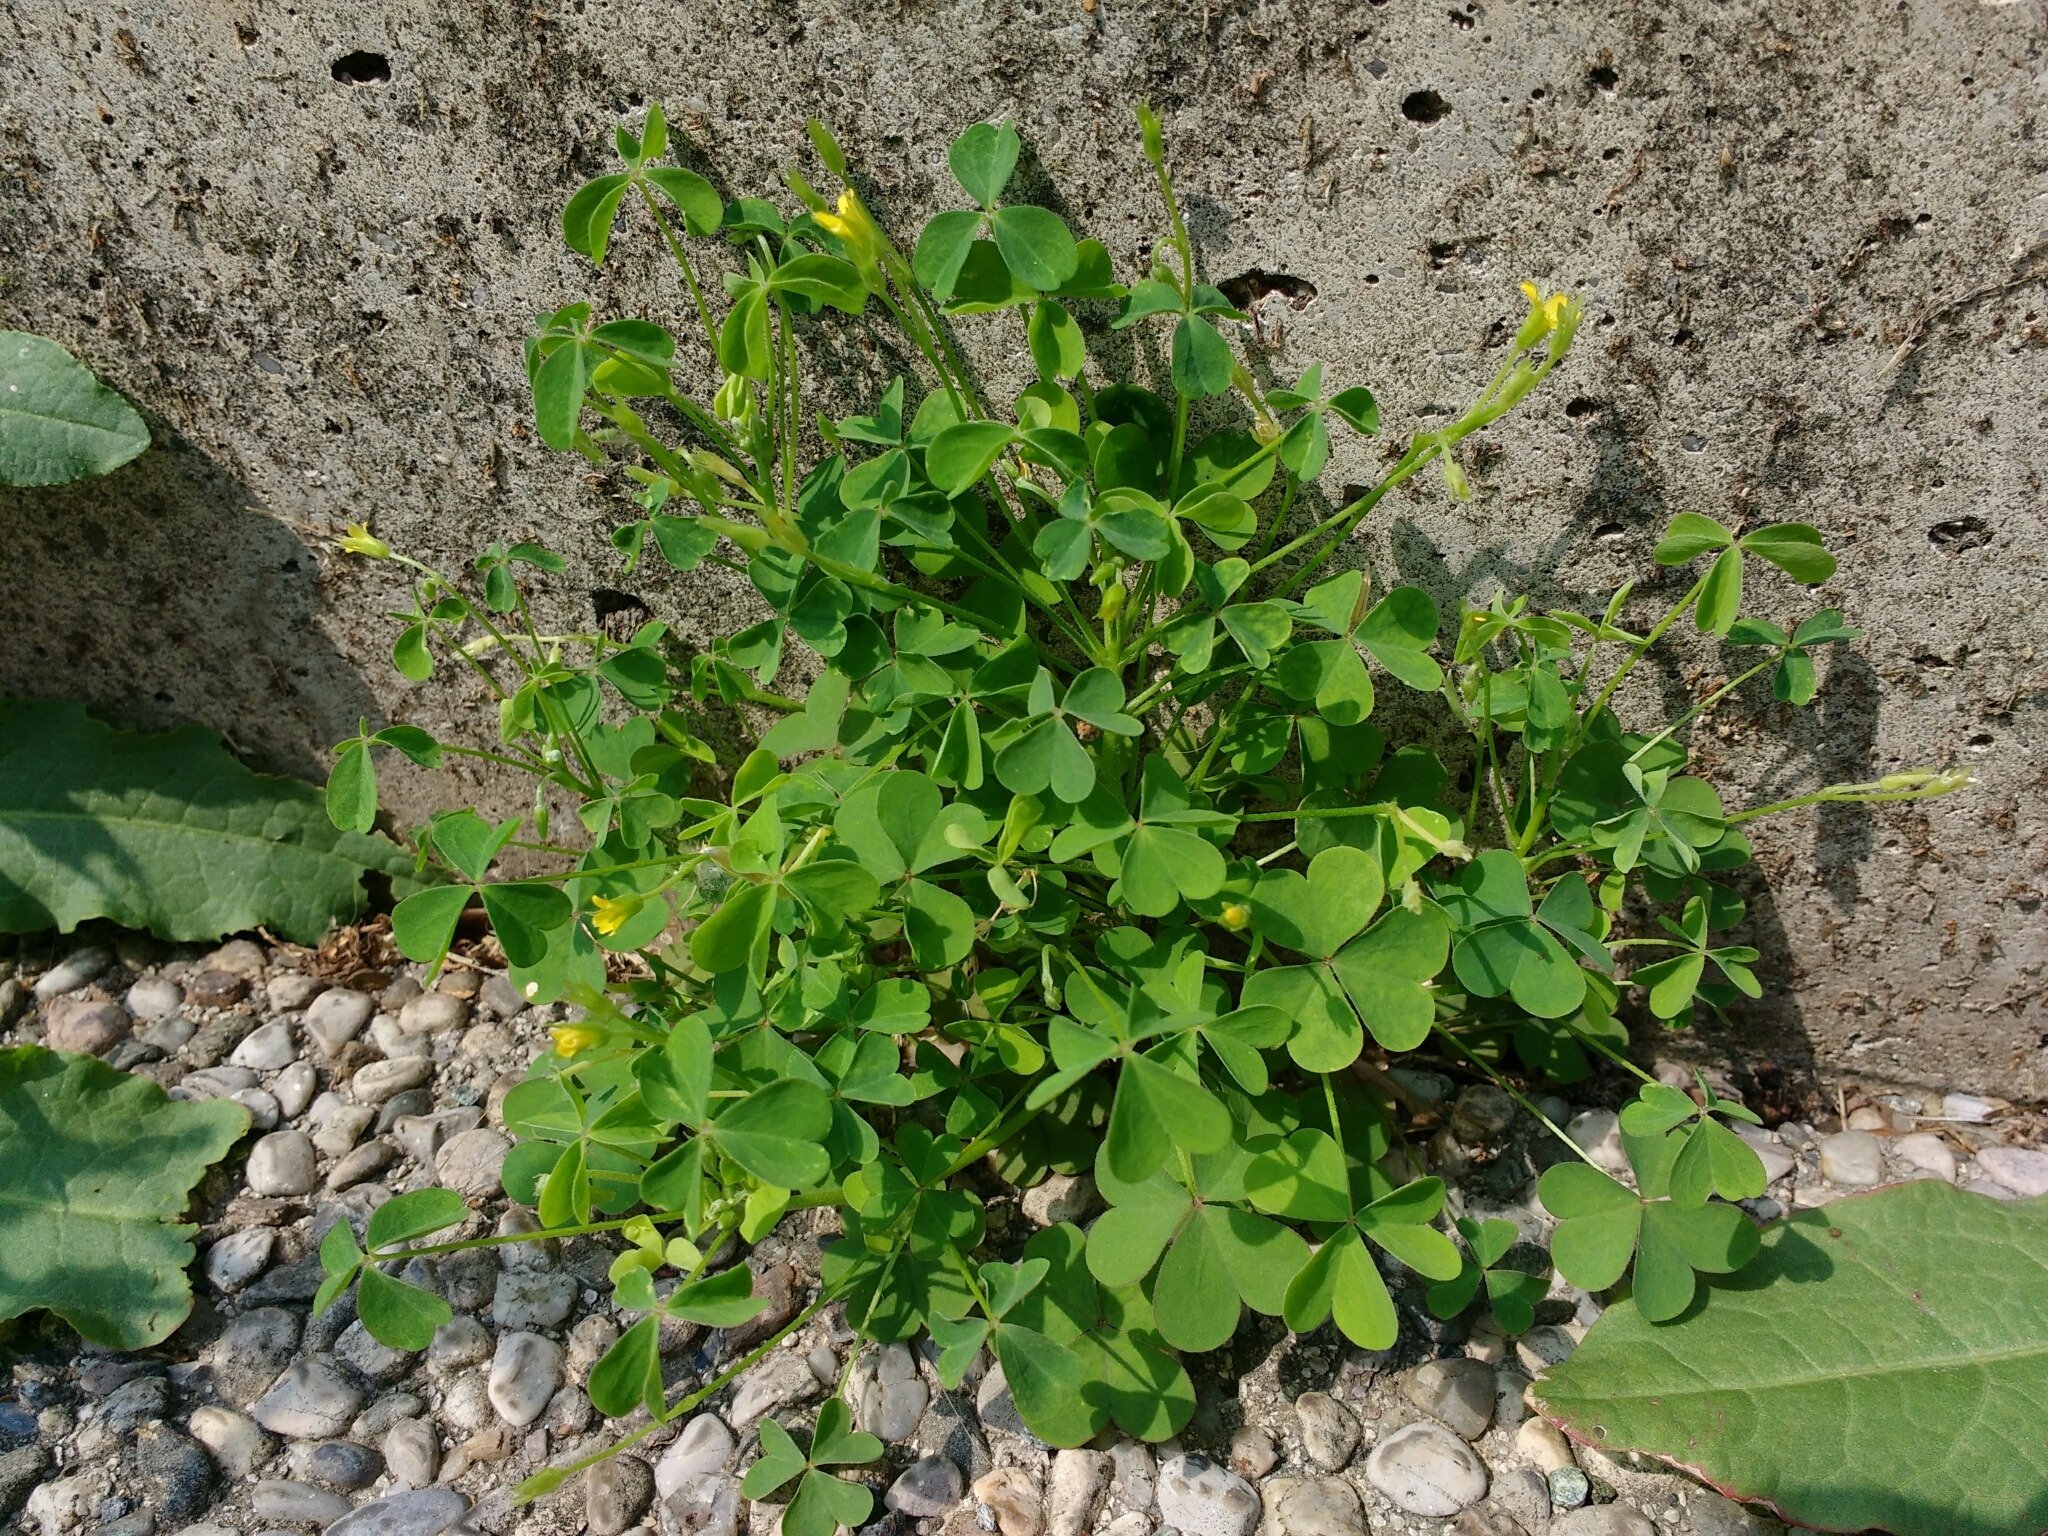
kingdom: Plantae
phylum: Tracheophyta
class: Magnoliopsida
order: Oxalidales
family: Oxalidaceae
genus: Oxalis
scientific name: Oxalis dillenii
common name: Sussex yellow-sorrel
